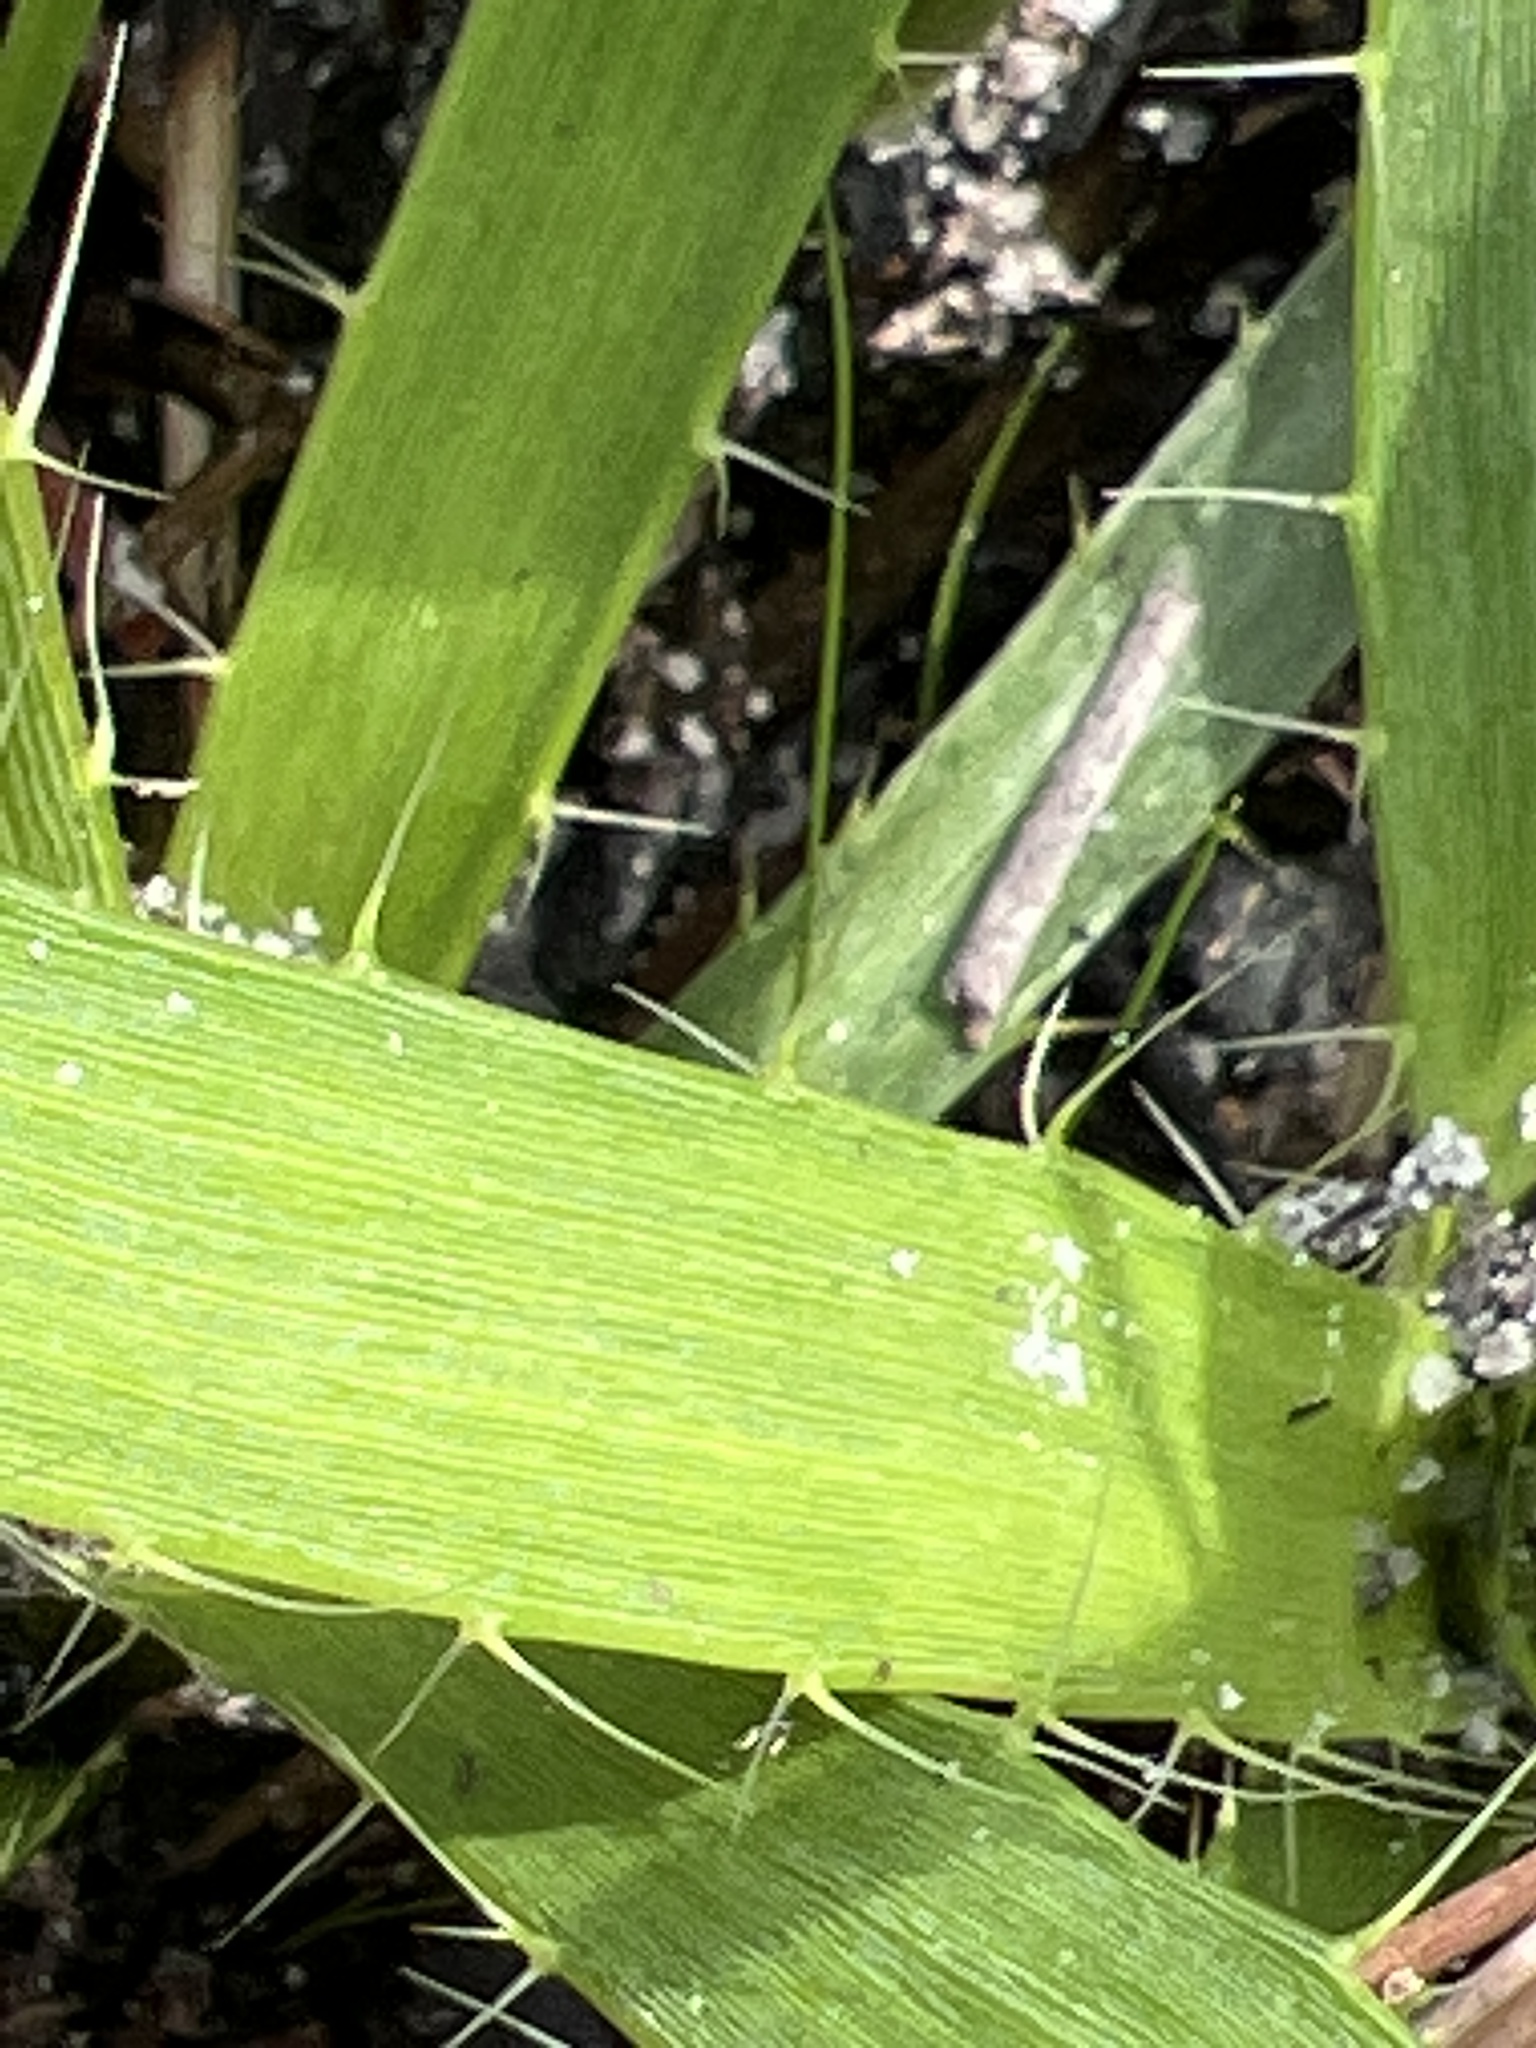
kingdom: Plantae
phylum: Tracheophyta
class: Magnoliopsida
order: Apiales
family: Apiaceae
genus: Eryngium
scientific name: Eryngium yuccifolium
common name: Button eryngo
